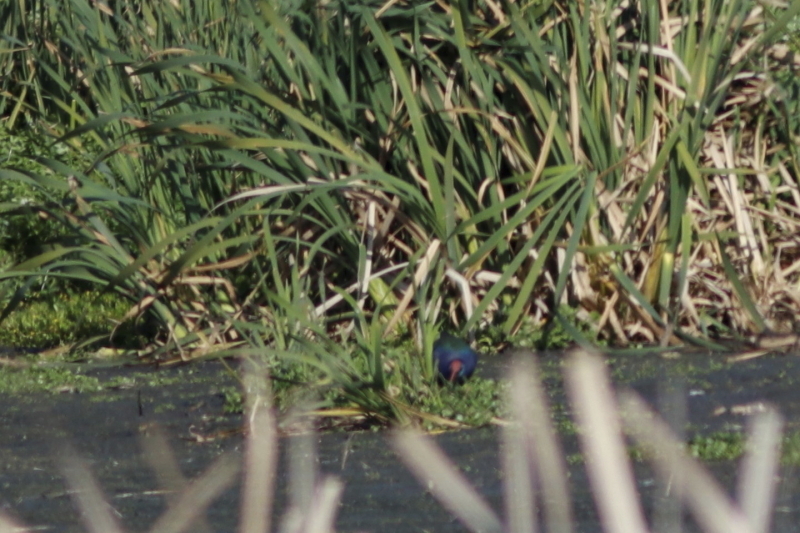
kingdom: Animalia
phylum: Chordata
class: Aves
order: Gruiformes
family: Rallidae
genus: Porphyrio
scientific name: Porphyrio porphyrio
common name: Purple swamphen
